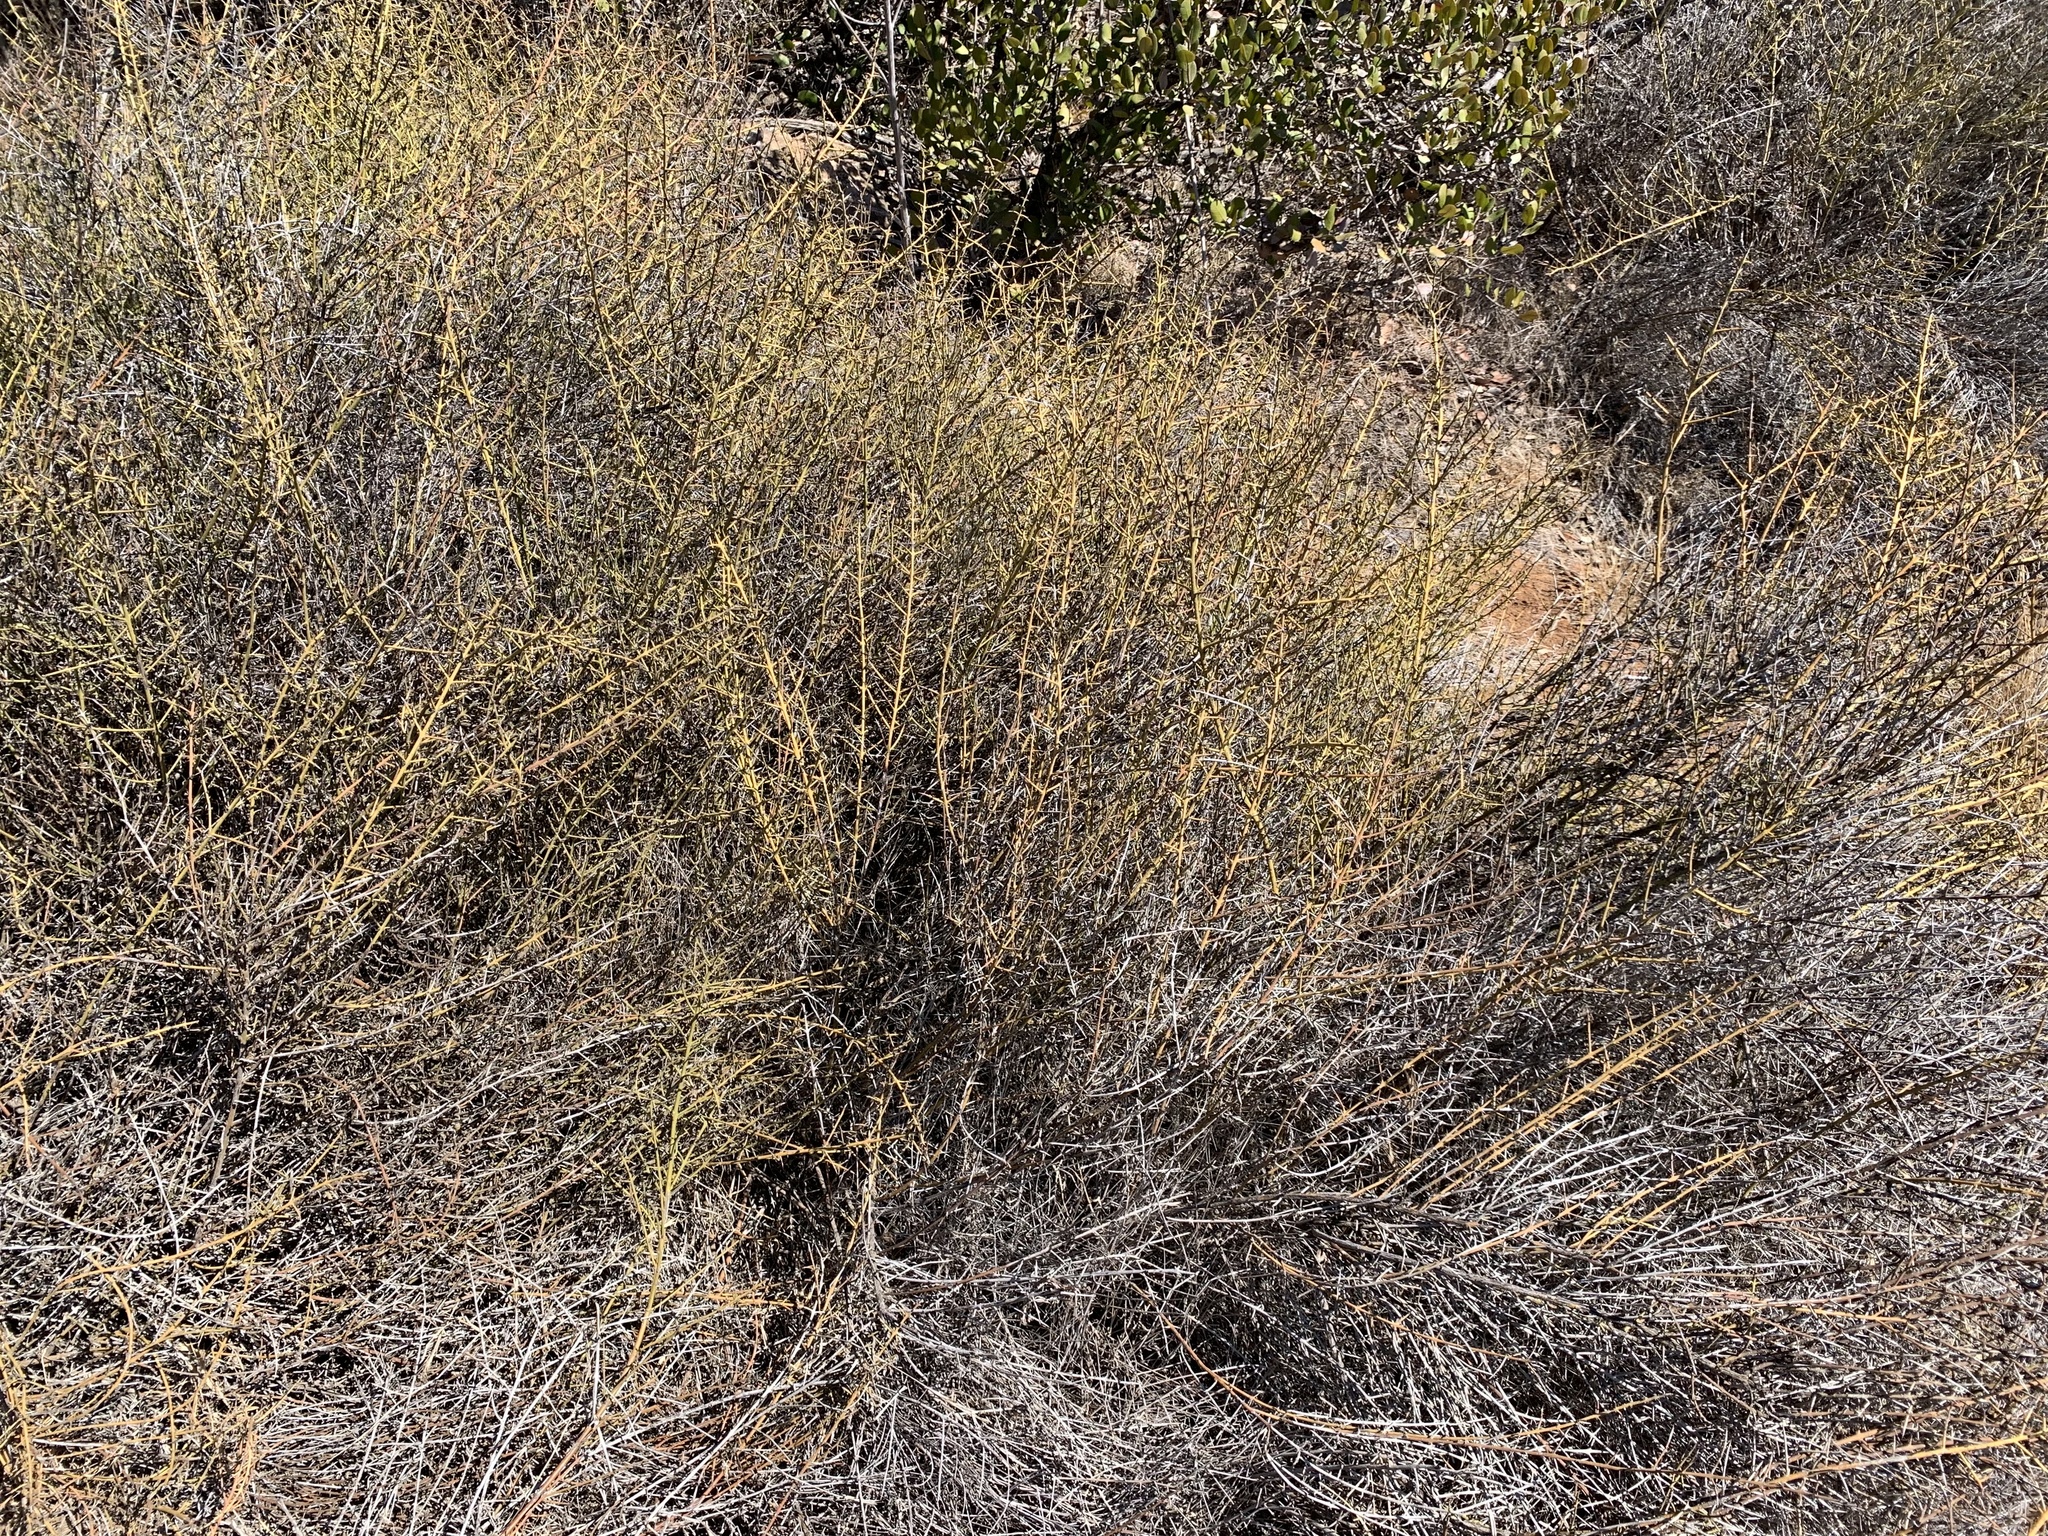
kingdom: Plantae
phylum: Tracheophyta
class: Magnoliopsida
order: Rosales
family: Rhamnaceae
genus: Adolphia
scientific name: Adolphia californica
